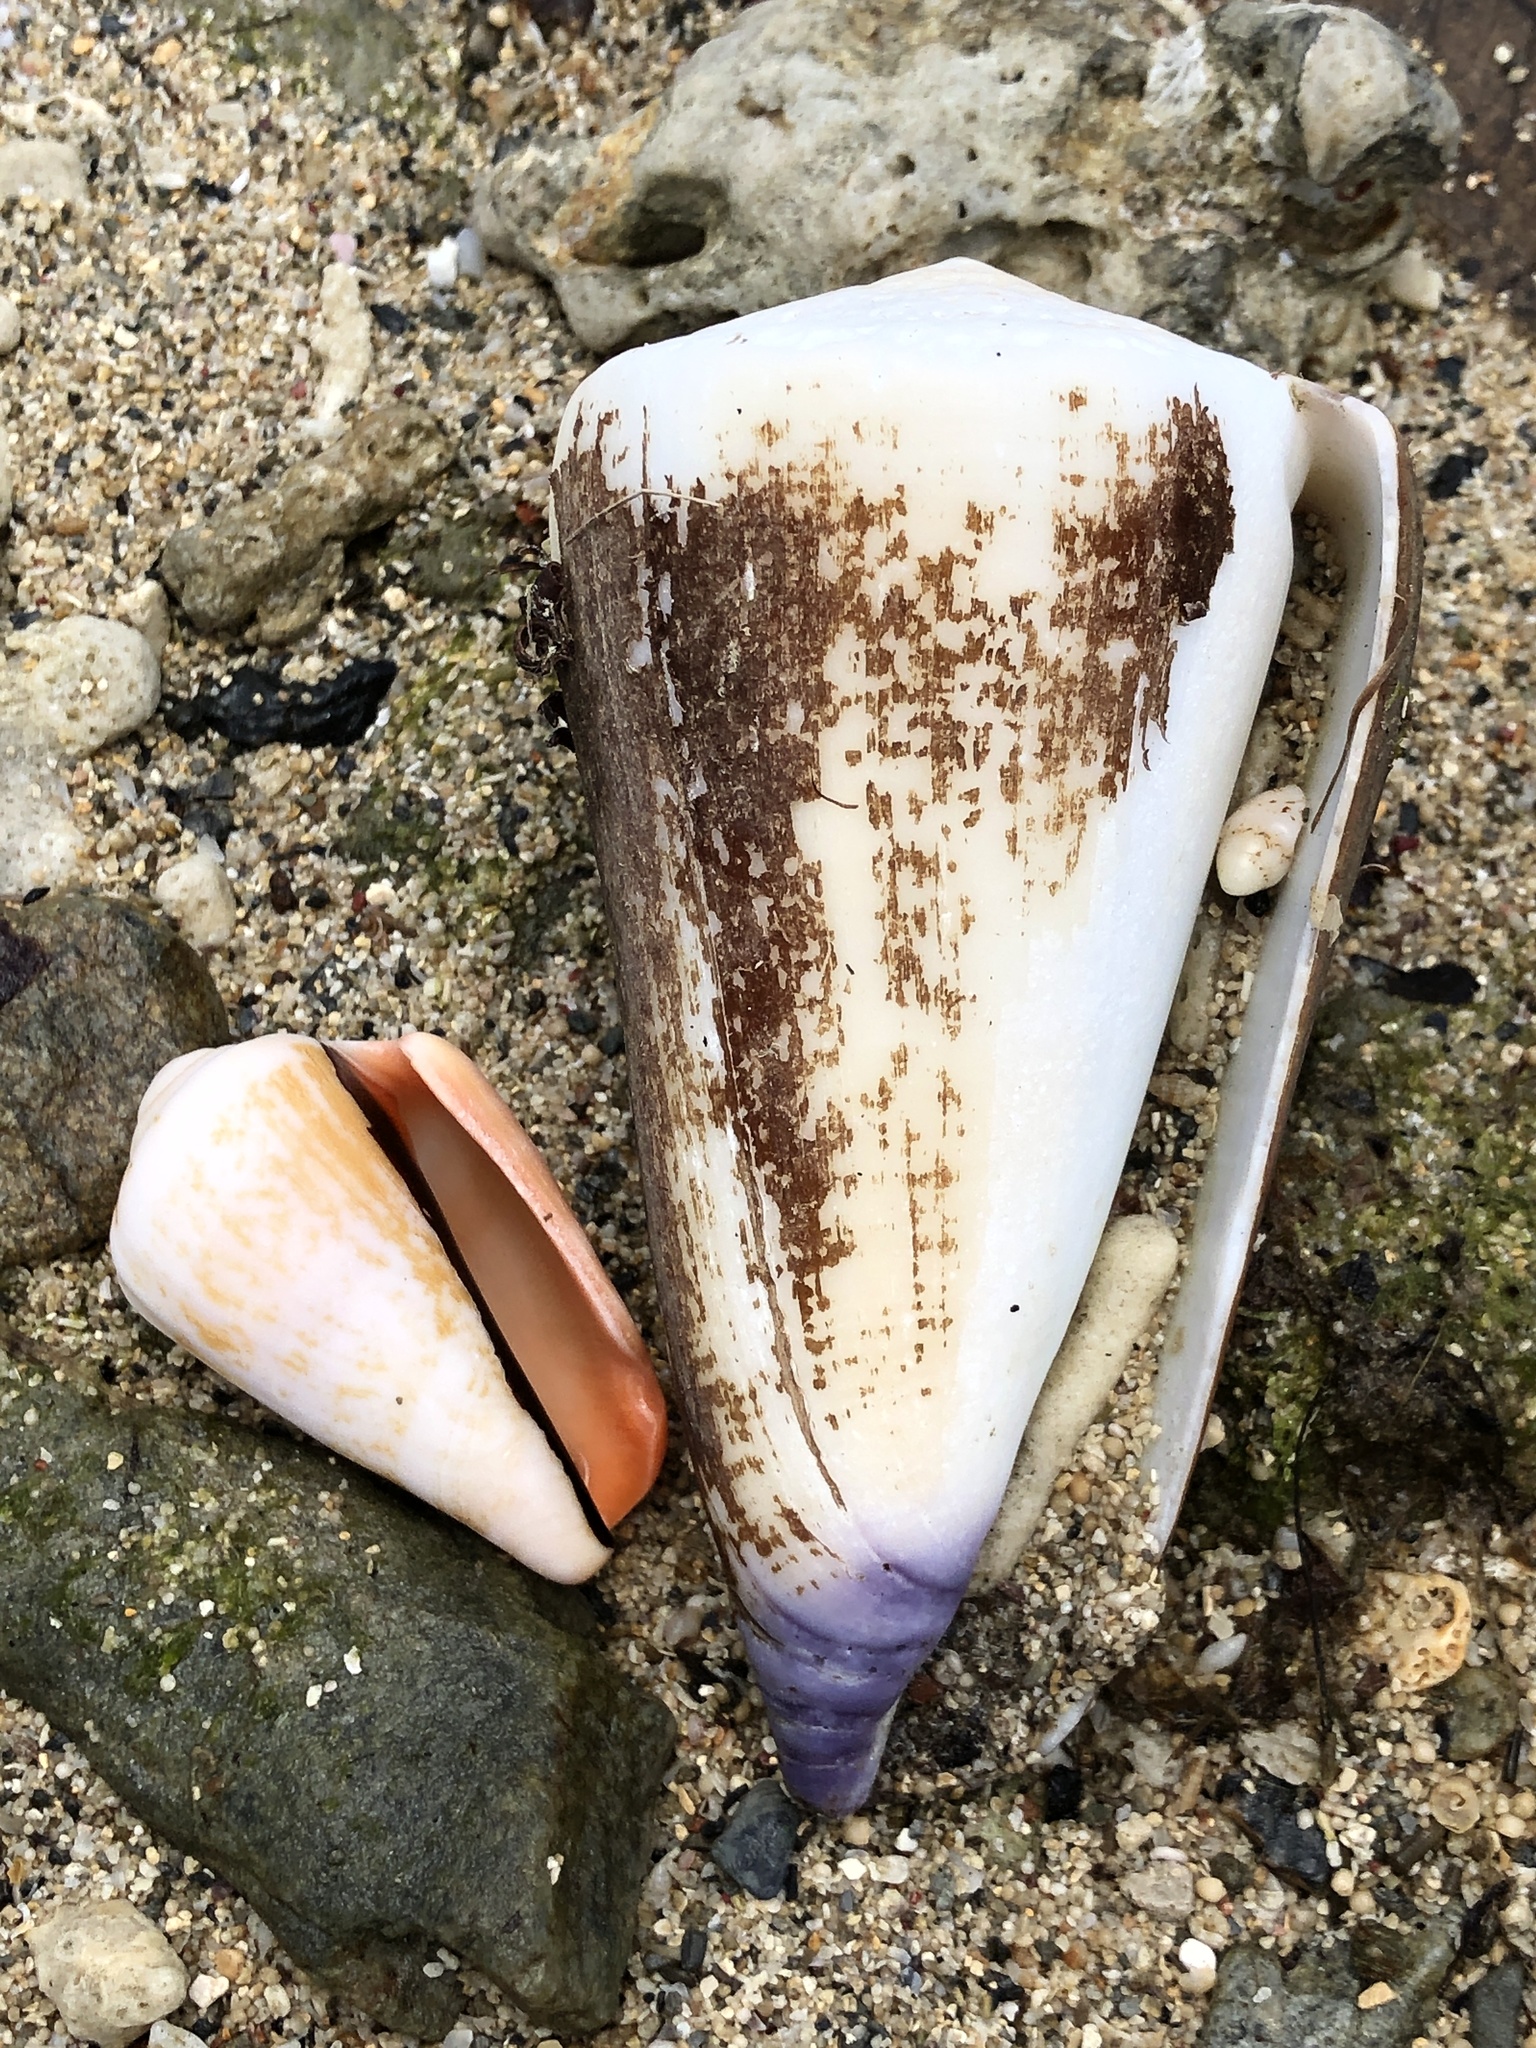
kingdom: Animalia
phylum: Mollusca
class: Gastropoda
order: Neogastropoda
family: Conidae
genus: Conus
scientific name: Conus virgo
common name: Virgin cone
